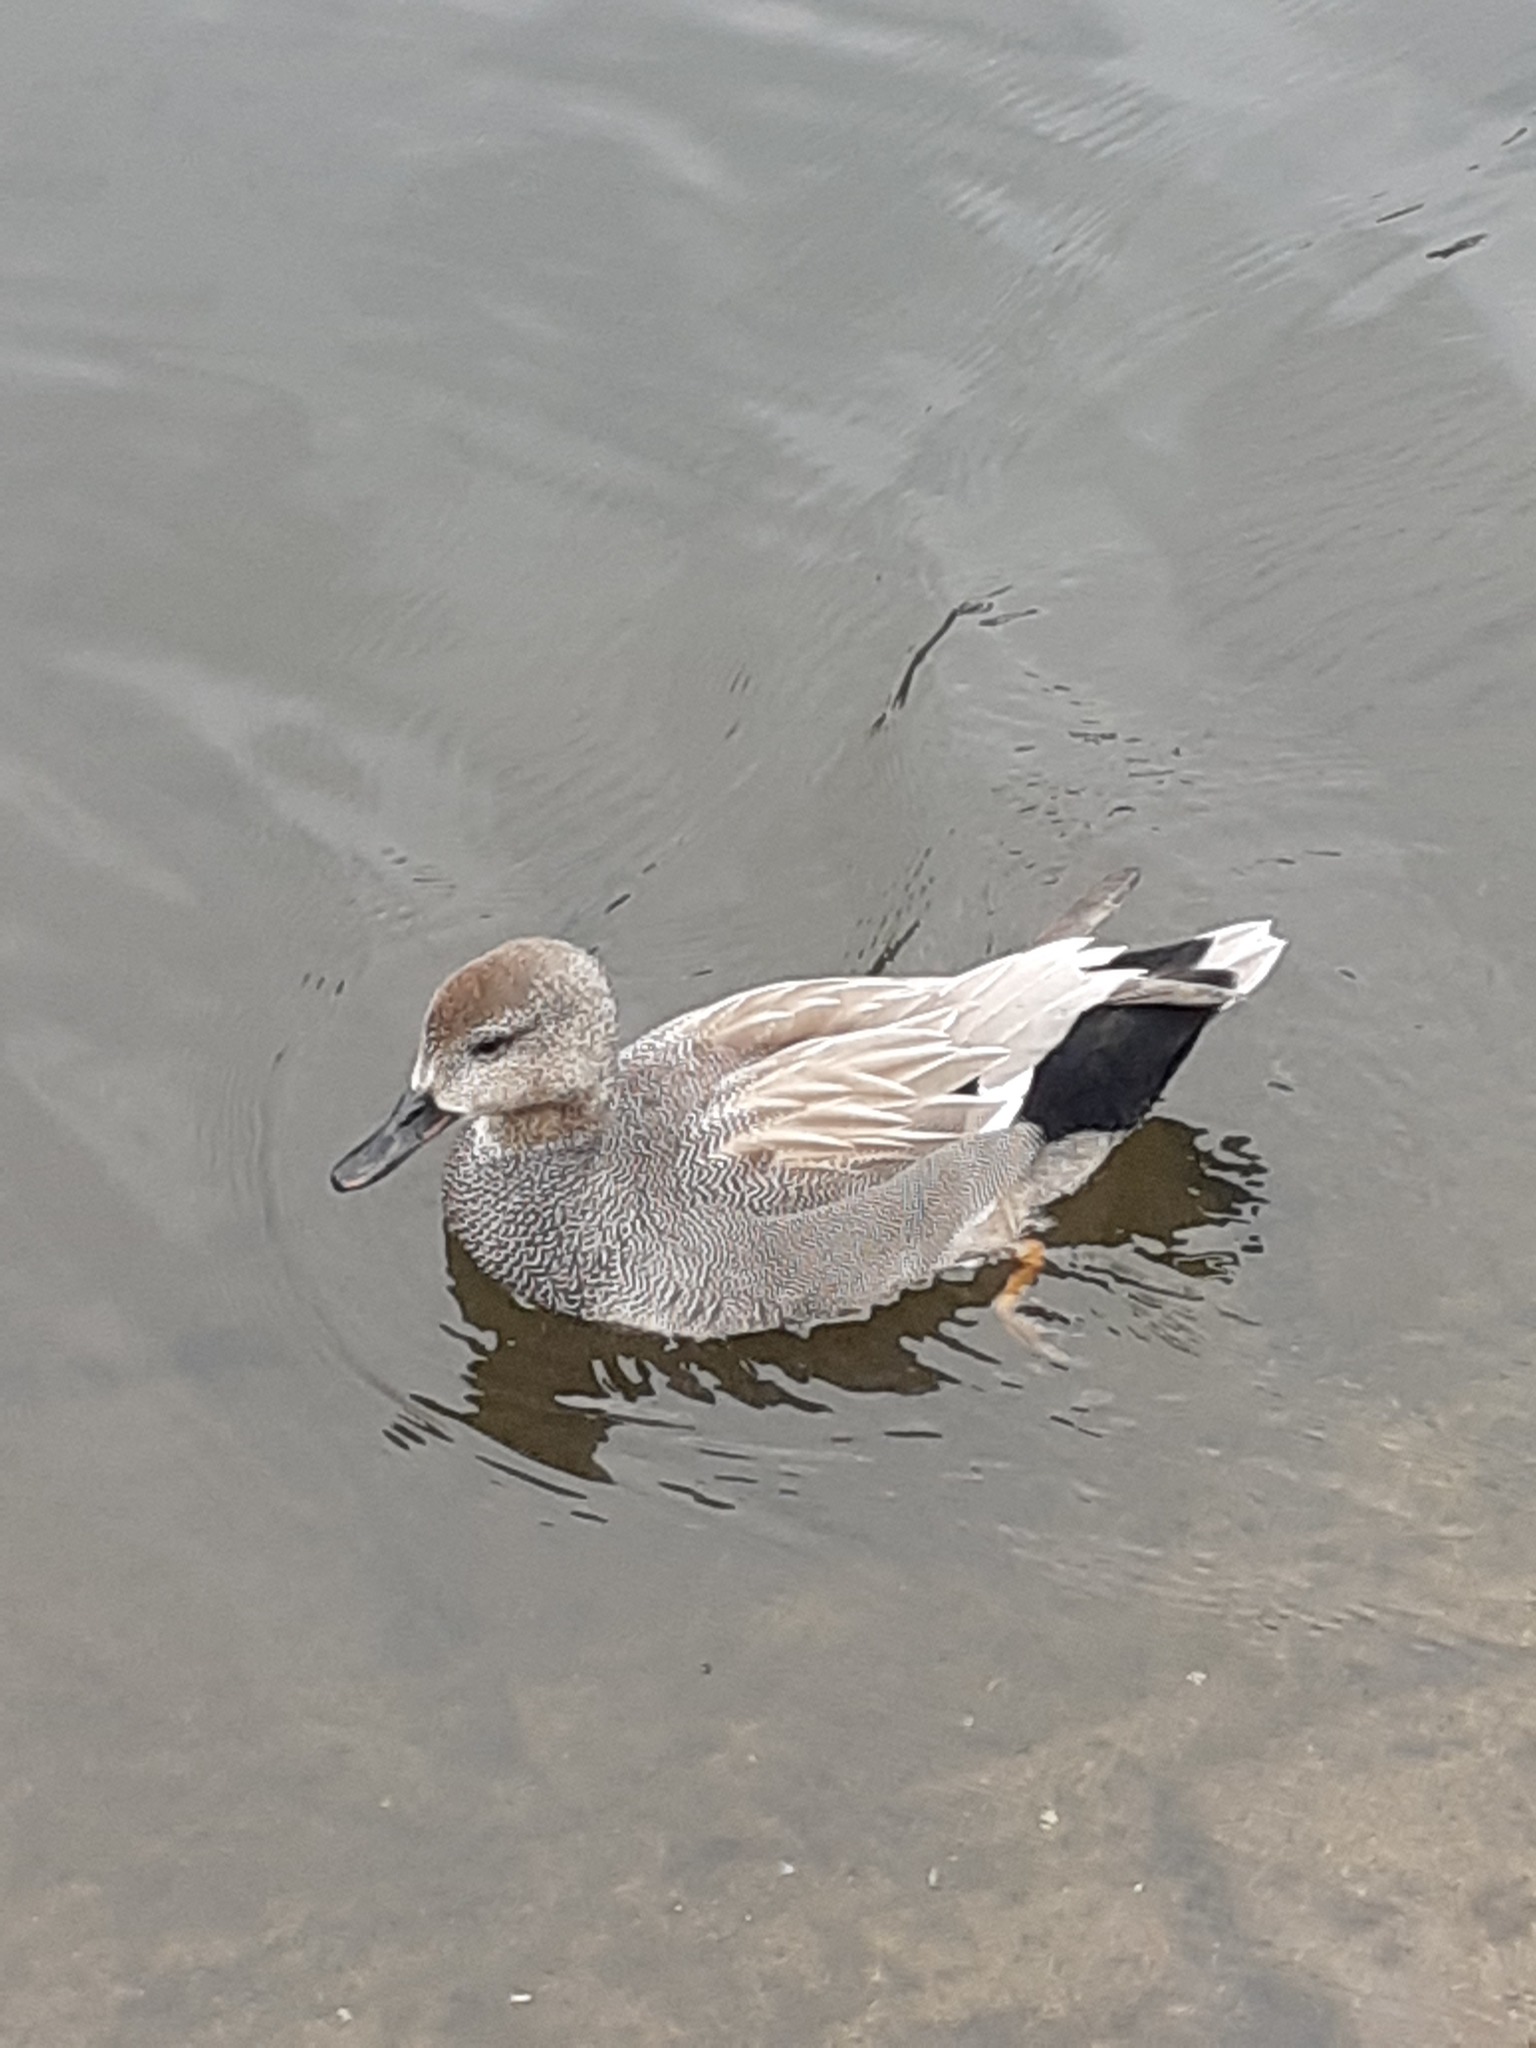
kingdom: Animalia
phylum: Chordata
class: Aves
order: Anseriformes
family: Anatidae
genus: Mareca
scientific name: Mareca strepera
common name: Gadwall
